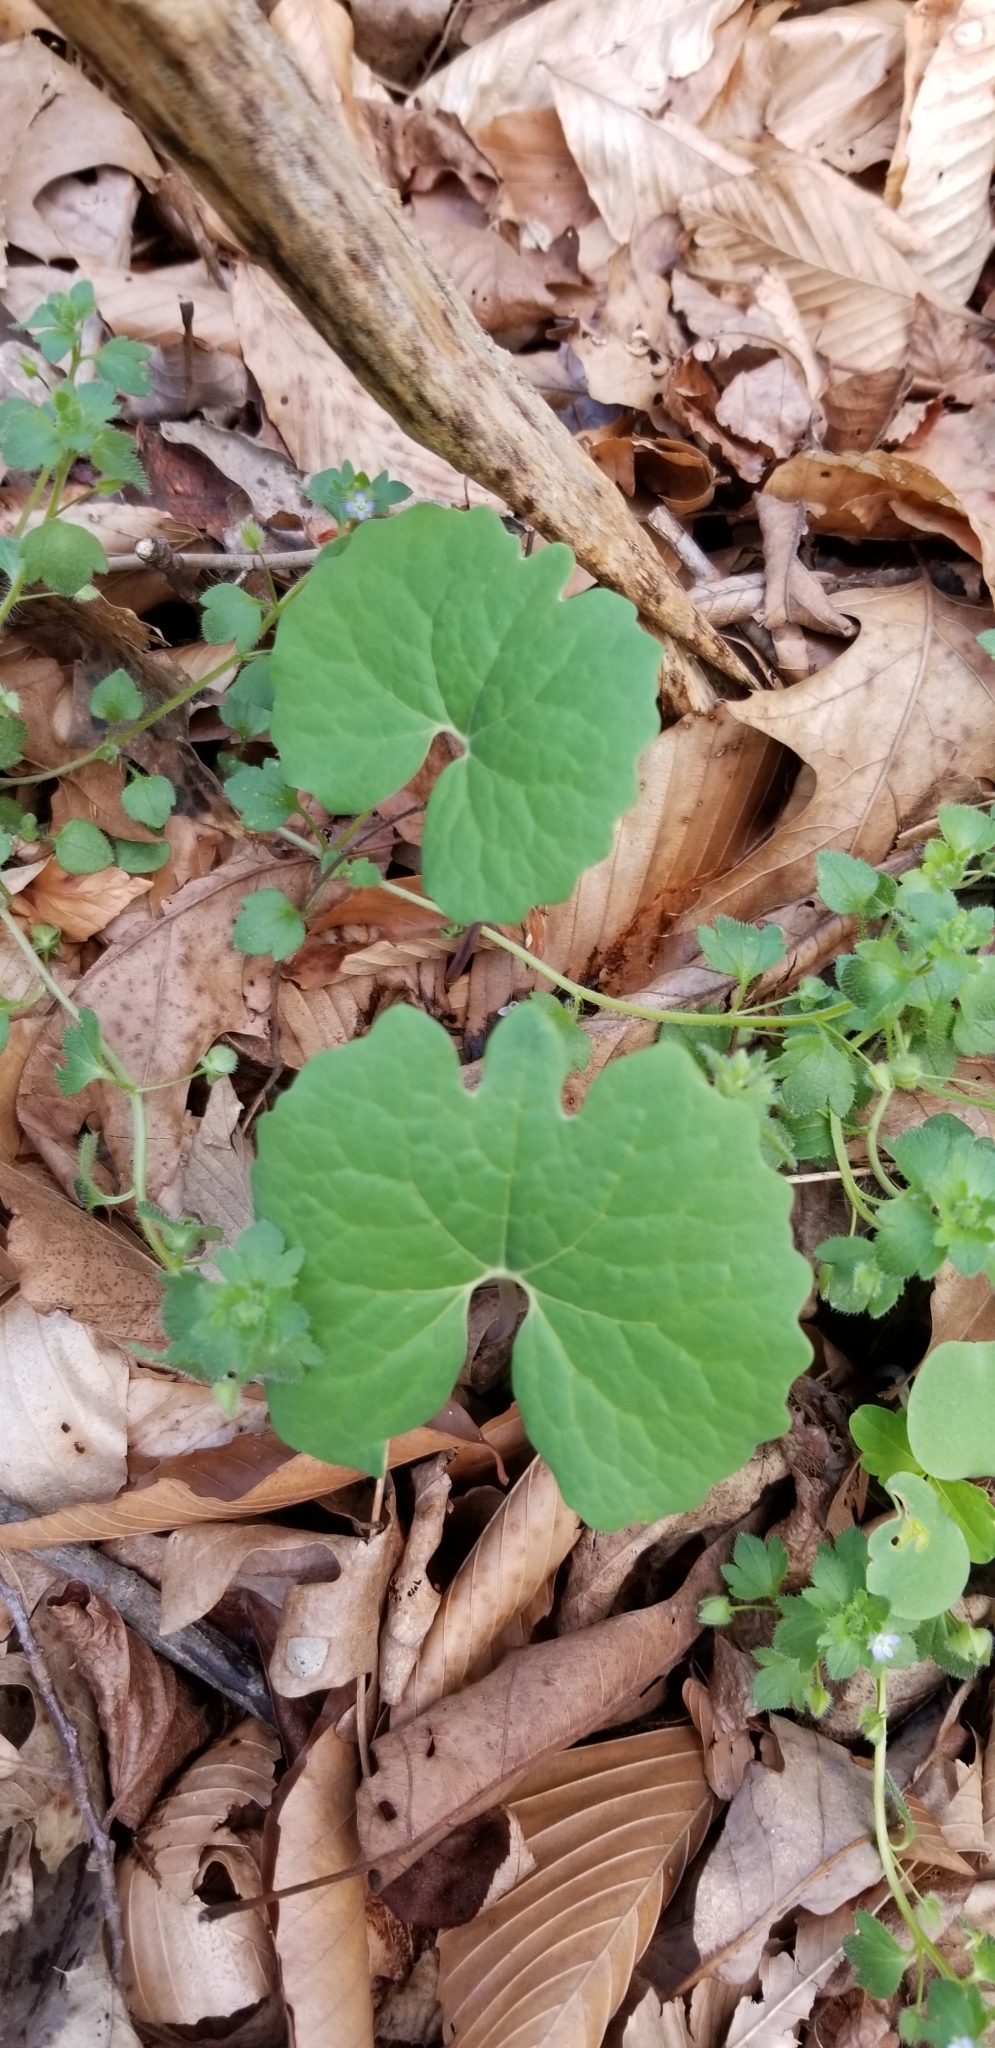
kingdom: Plantae
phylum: Tracheophyta
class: Magnoliopsida
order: Ranunculales
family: Papaveraceae
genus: Sanguinaria
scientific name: Sanguinaria canadensis
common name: Bloodroot
